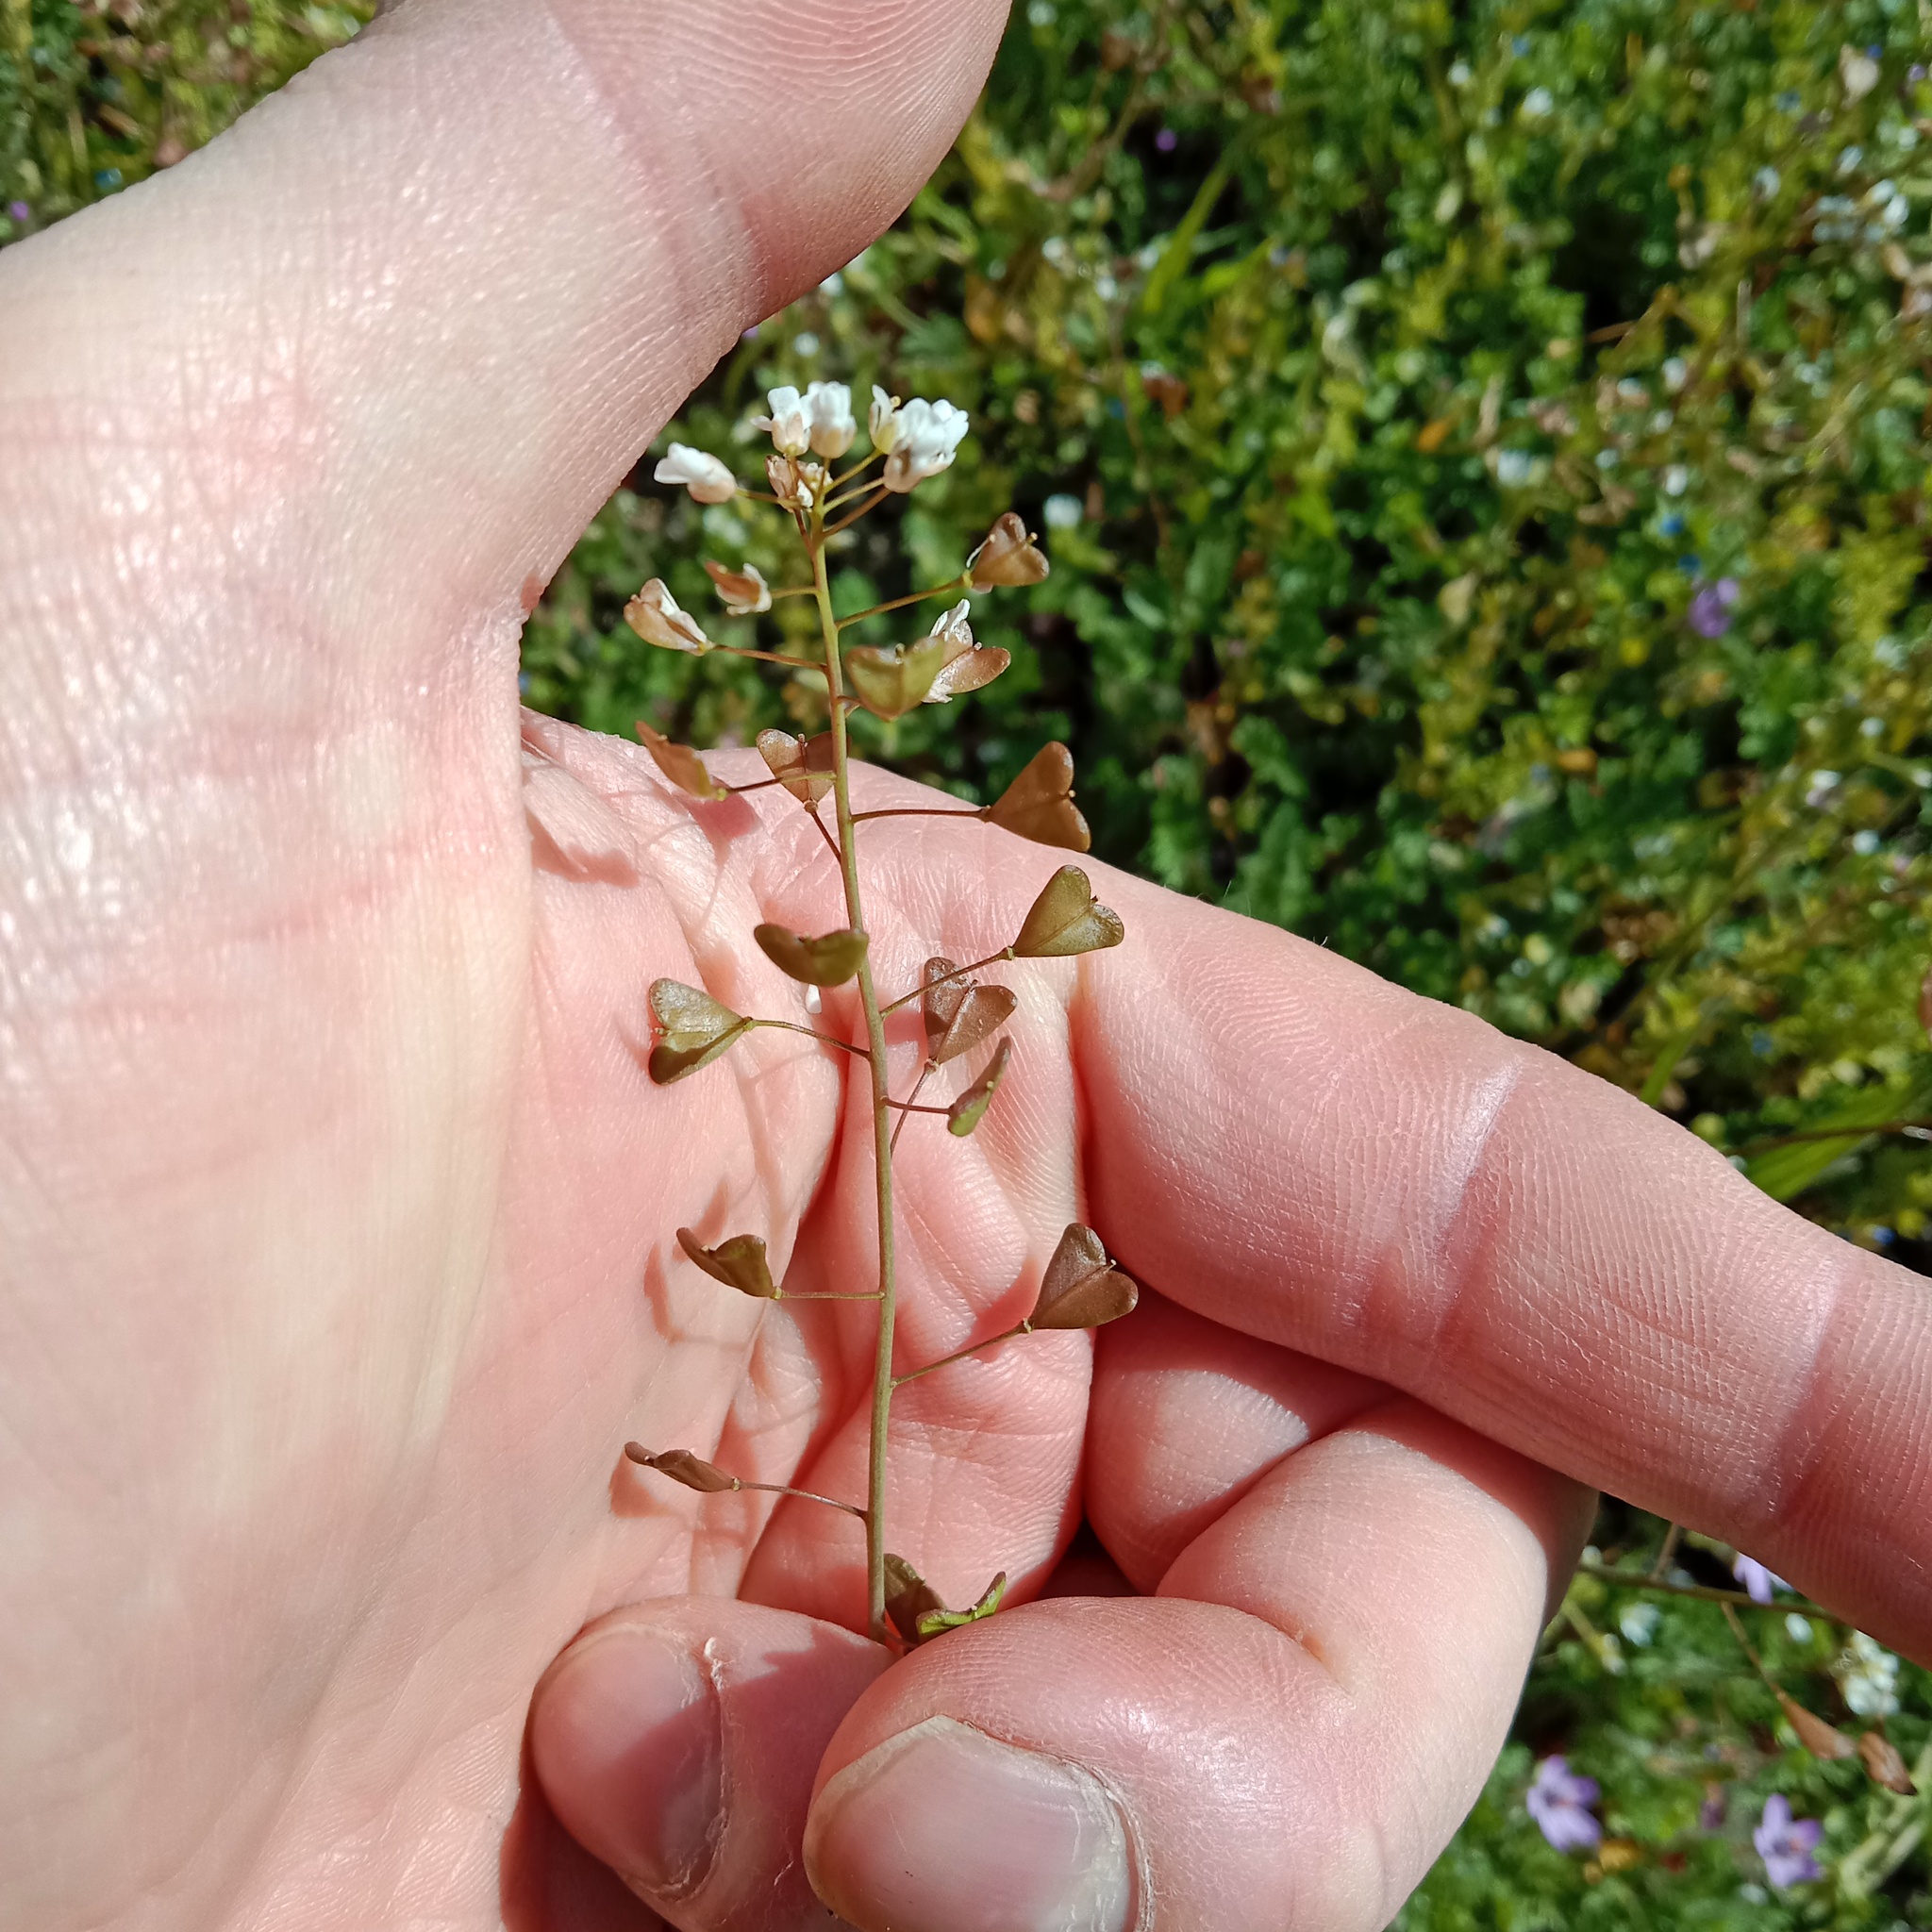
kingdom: Plantae
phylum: Tracheophyta
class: Magnoliopsida
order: Brassicales
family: Brassicaceae
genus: Capsella
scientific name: Capsella bursa-pastoris
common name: Shepherd's purse
